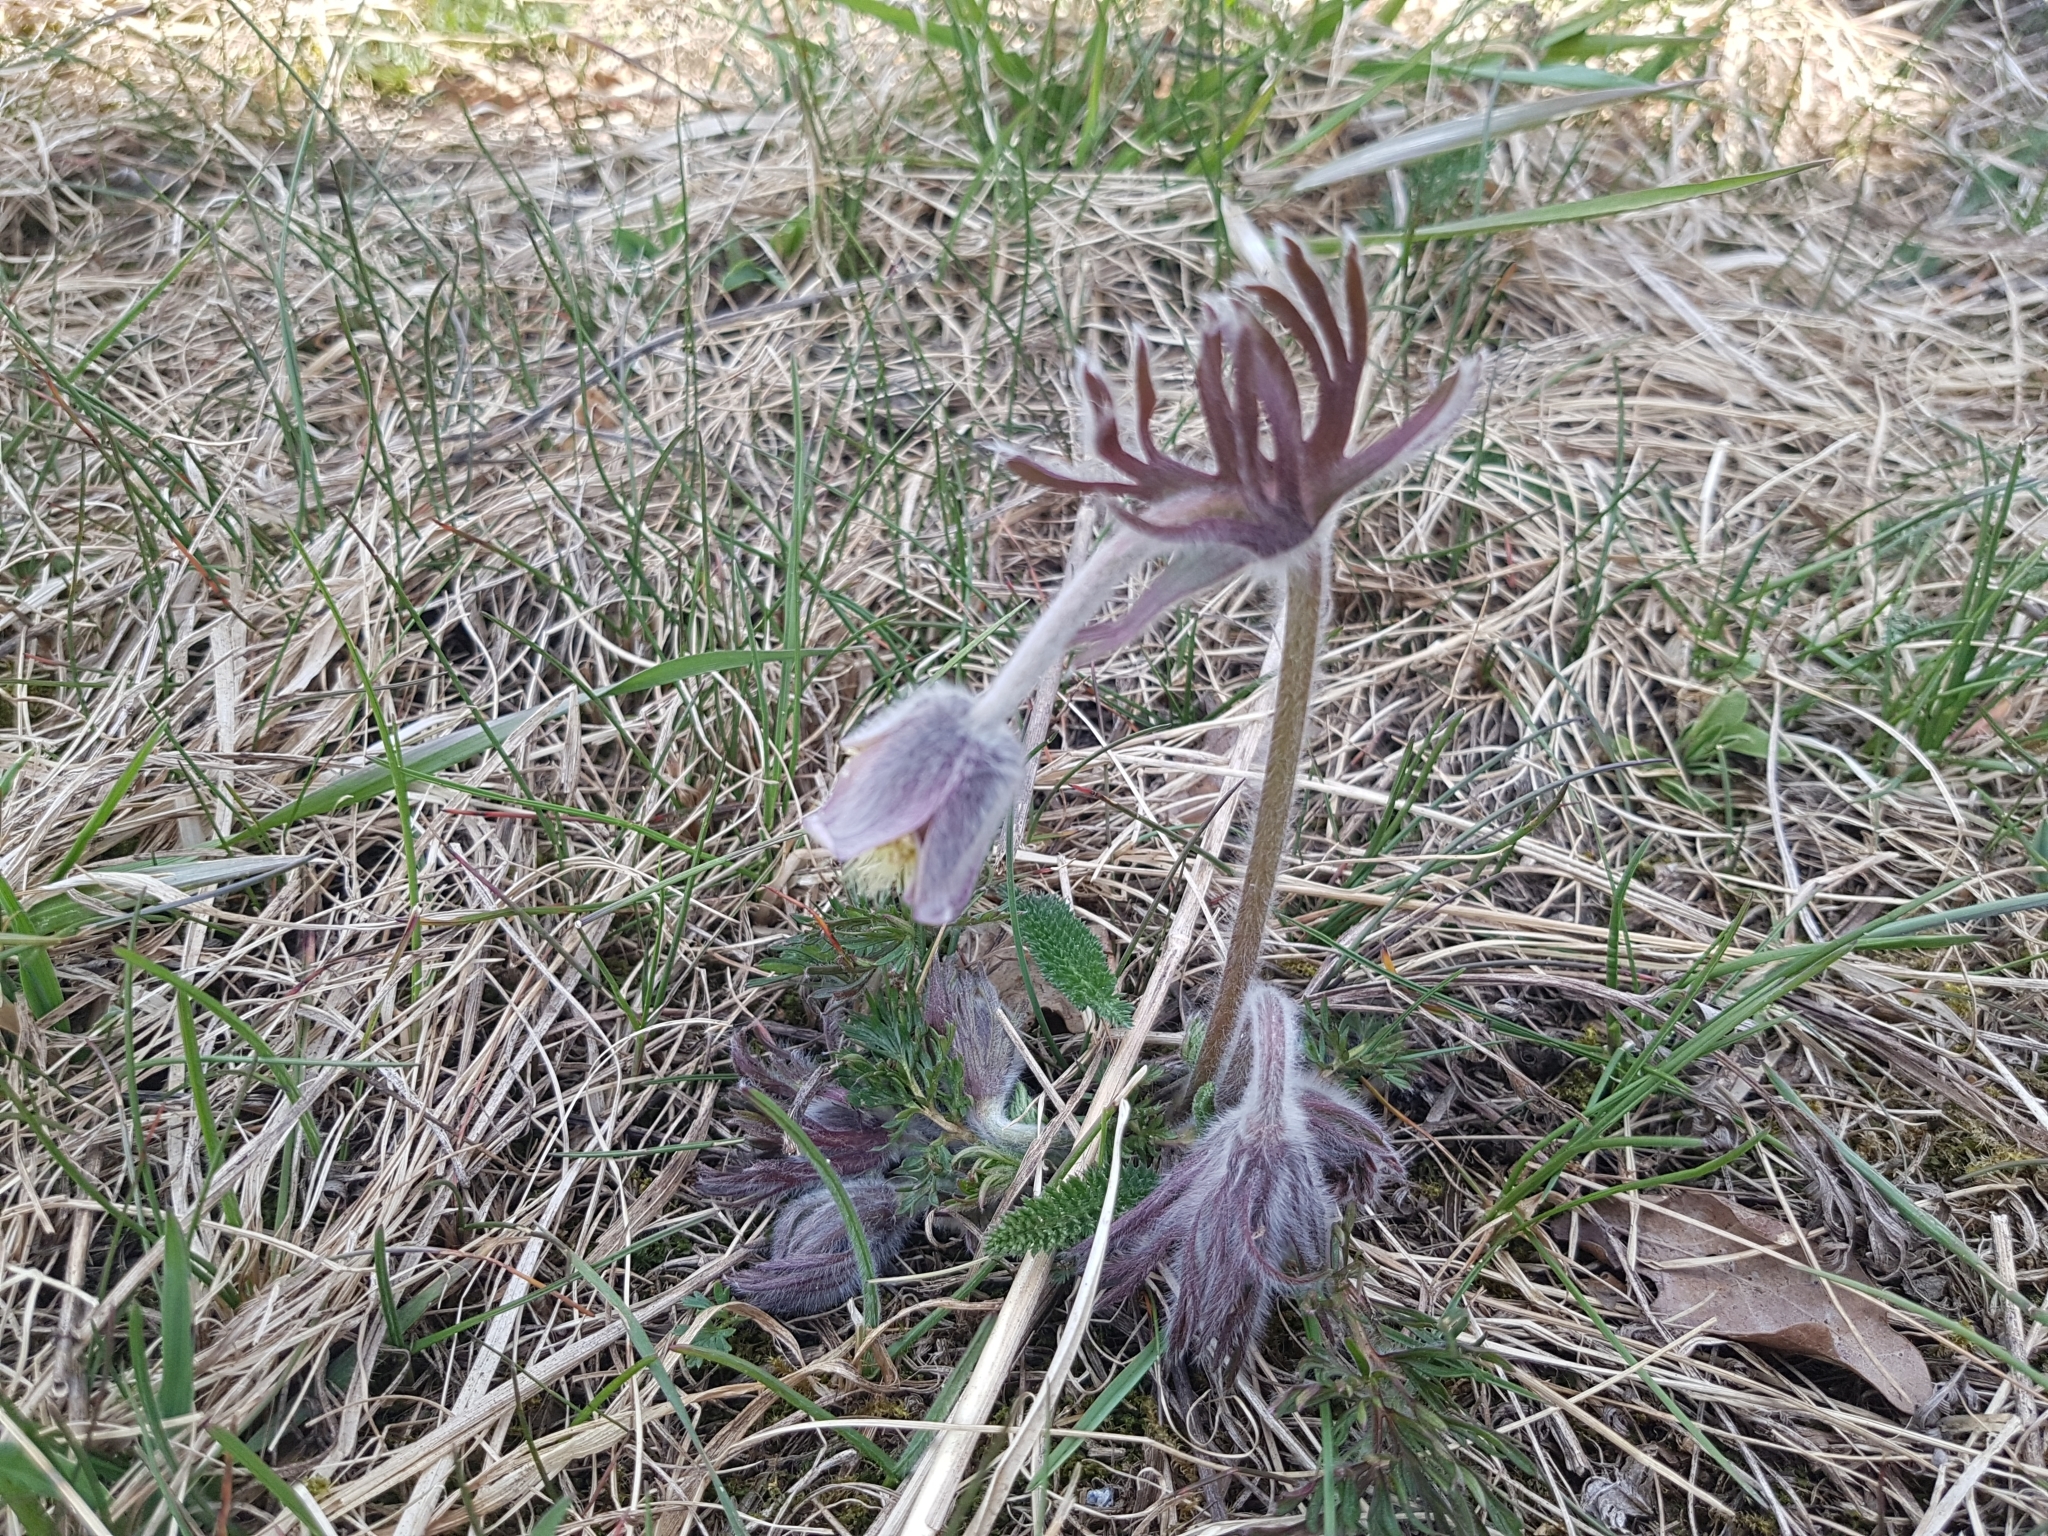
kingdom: Plantae
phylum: Tracheophyta
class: Magnoliopsida
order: Ranunculales
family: Ranunculaceae
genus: Pulsatilla
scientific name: Pulsatilla pratensis
